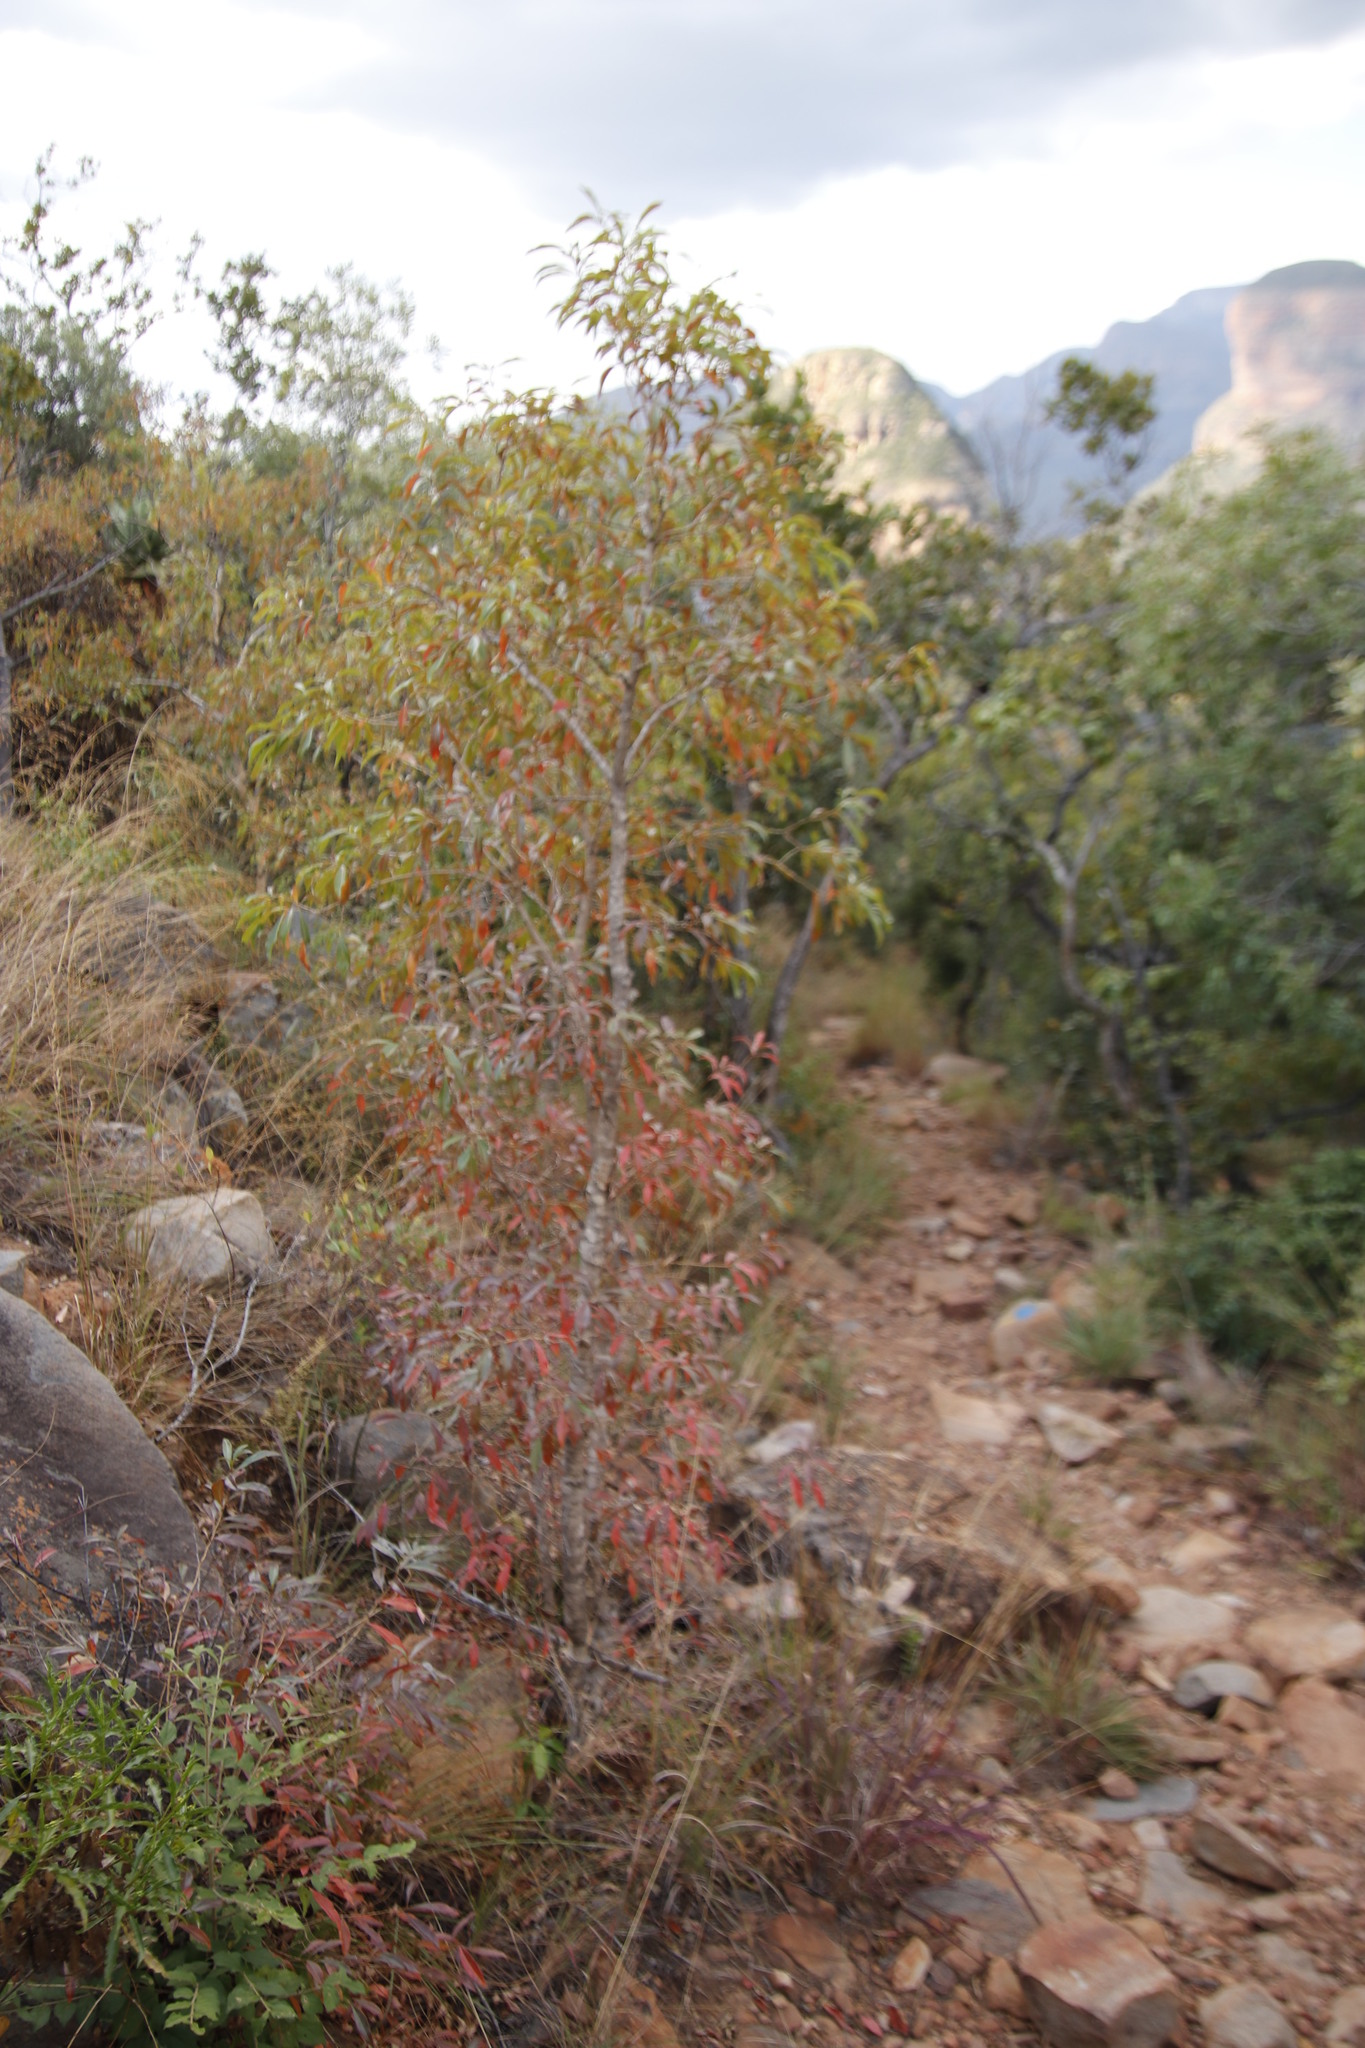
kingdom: Plantae
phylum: Tracheophyta
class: Magnoliopsida
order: Myrtales
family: Myrtaceae
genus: Heteropyxis
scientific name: Heteropyxis natalensis
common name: Lavender tree
